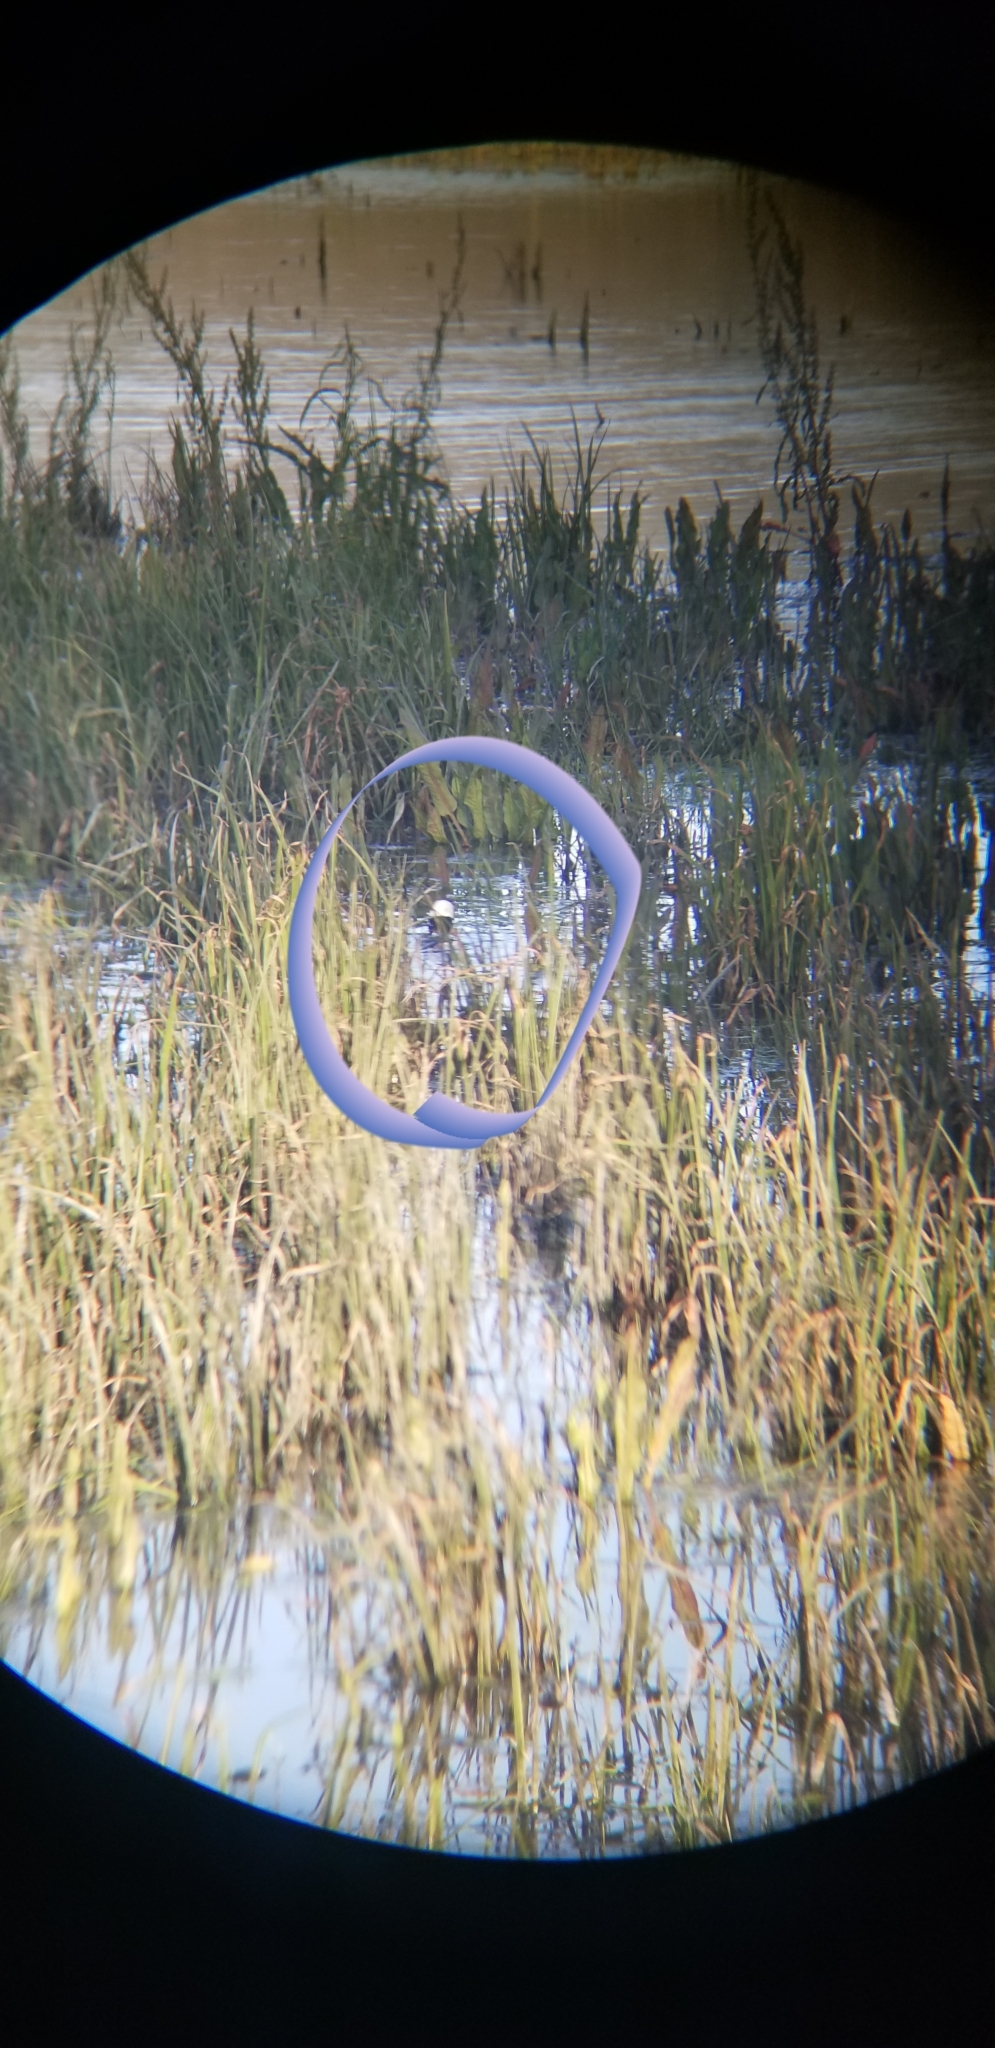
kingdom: Animalia
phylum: Chordata
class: Aves
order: Anseriformes
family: Anatidae
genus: Bucephala
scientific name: Bucephala albeola
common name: Bufflehead
